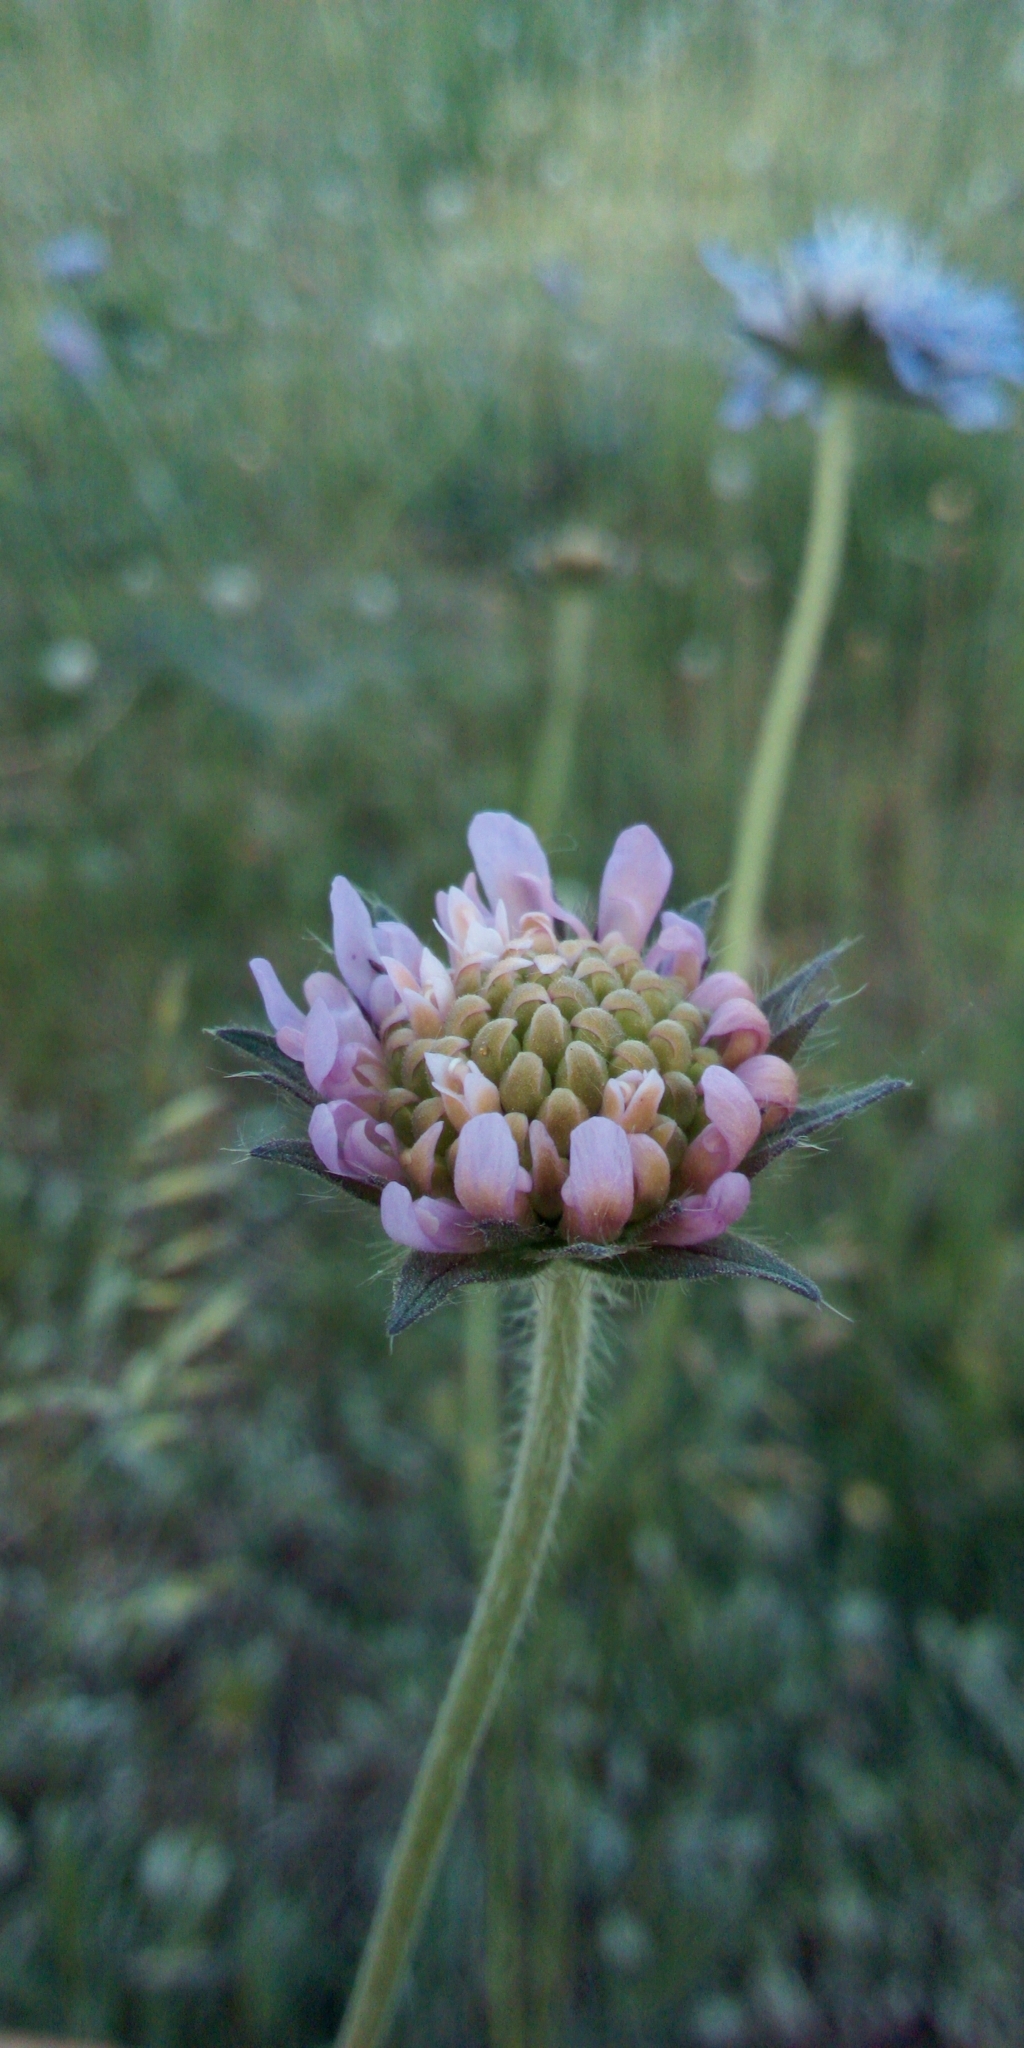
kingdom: Plantae
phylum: Tracheophyta
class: Magnoliopsida
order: Dipsacales
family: Caprifoliaceae
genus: Knautia
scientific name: Knautia arvensis
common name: Field scabiosa
